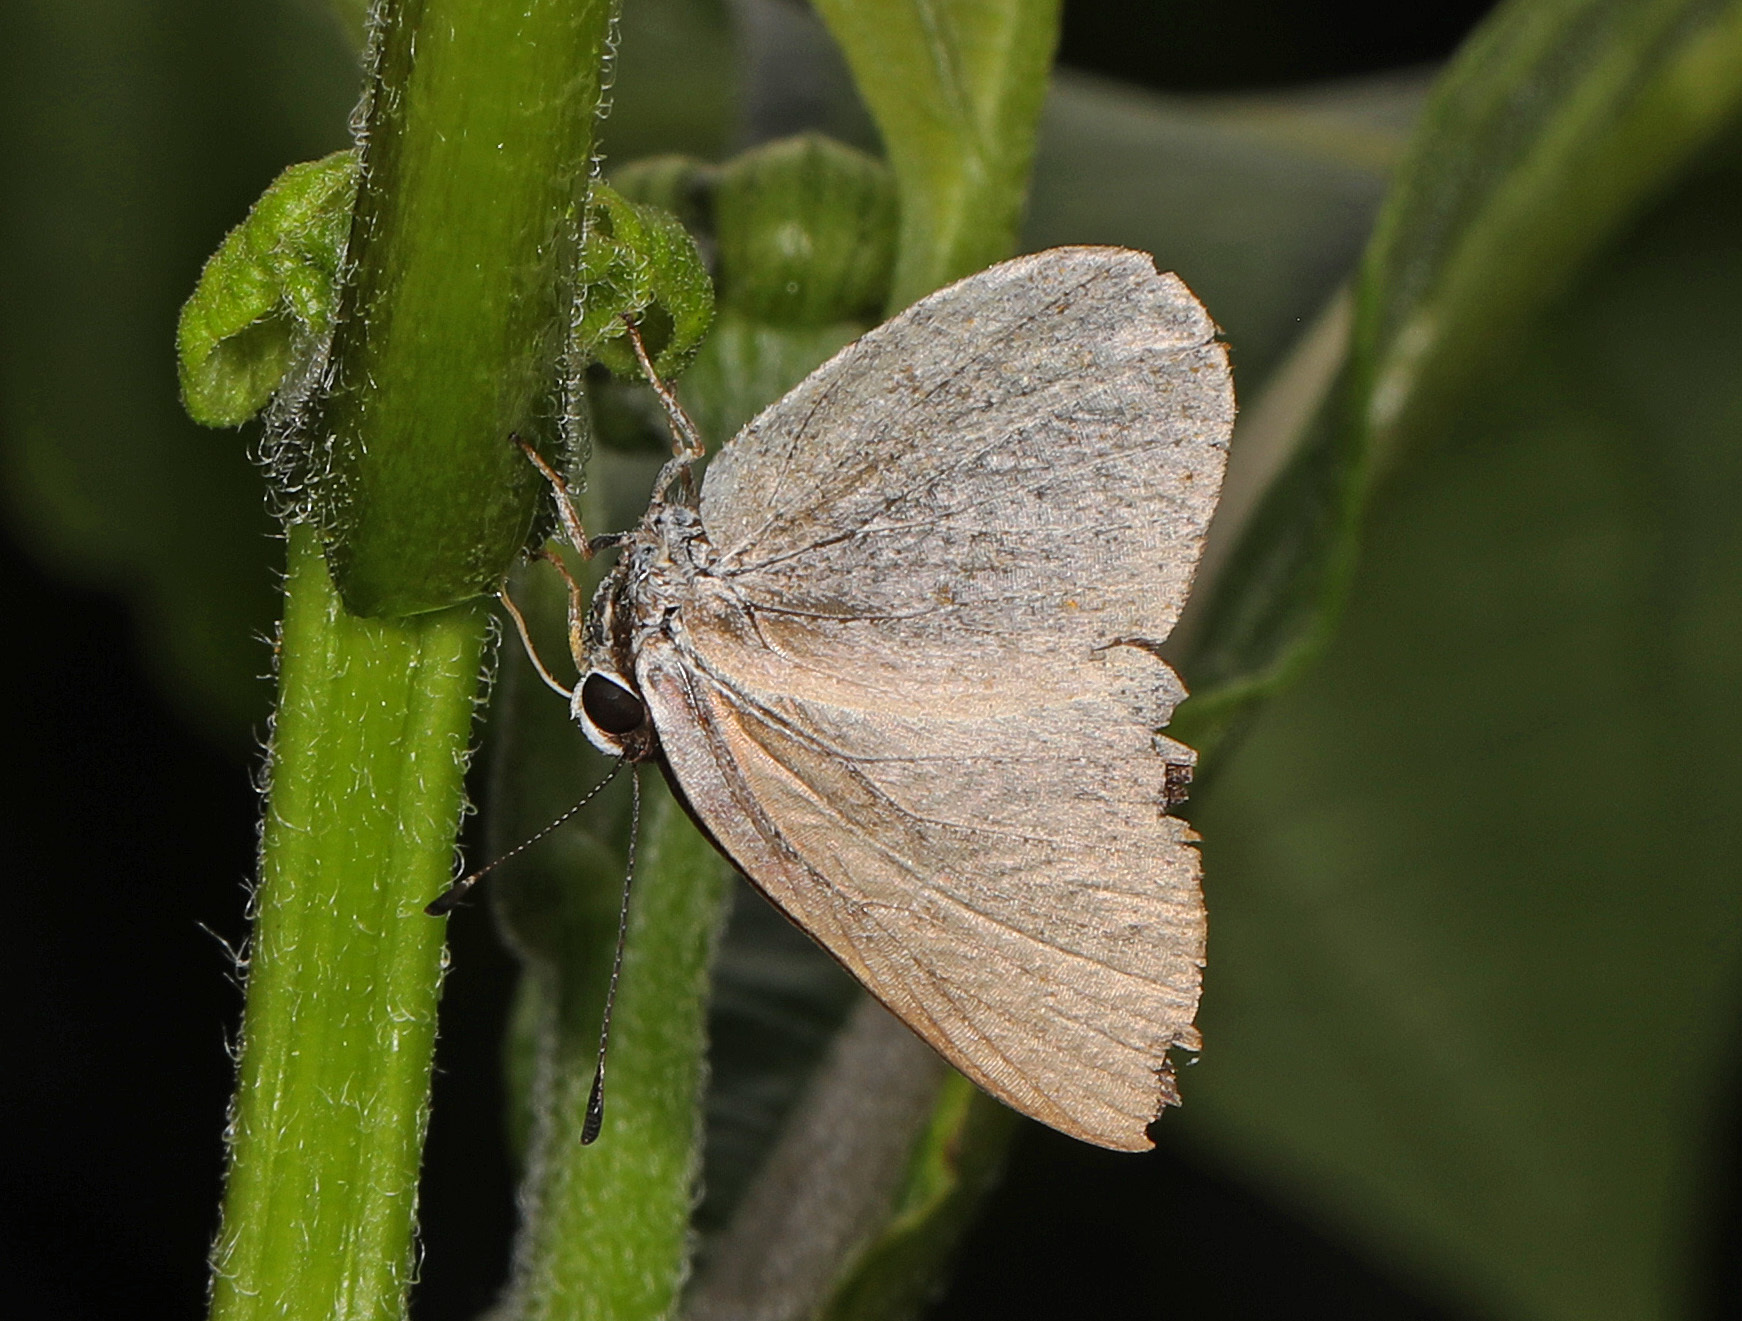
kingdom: Animalia
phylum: Arthropoda
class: Insecta
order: Lepidoptera
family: Riodinidae
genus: Pelolasia
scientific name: Pelolasia
